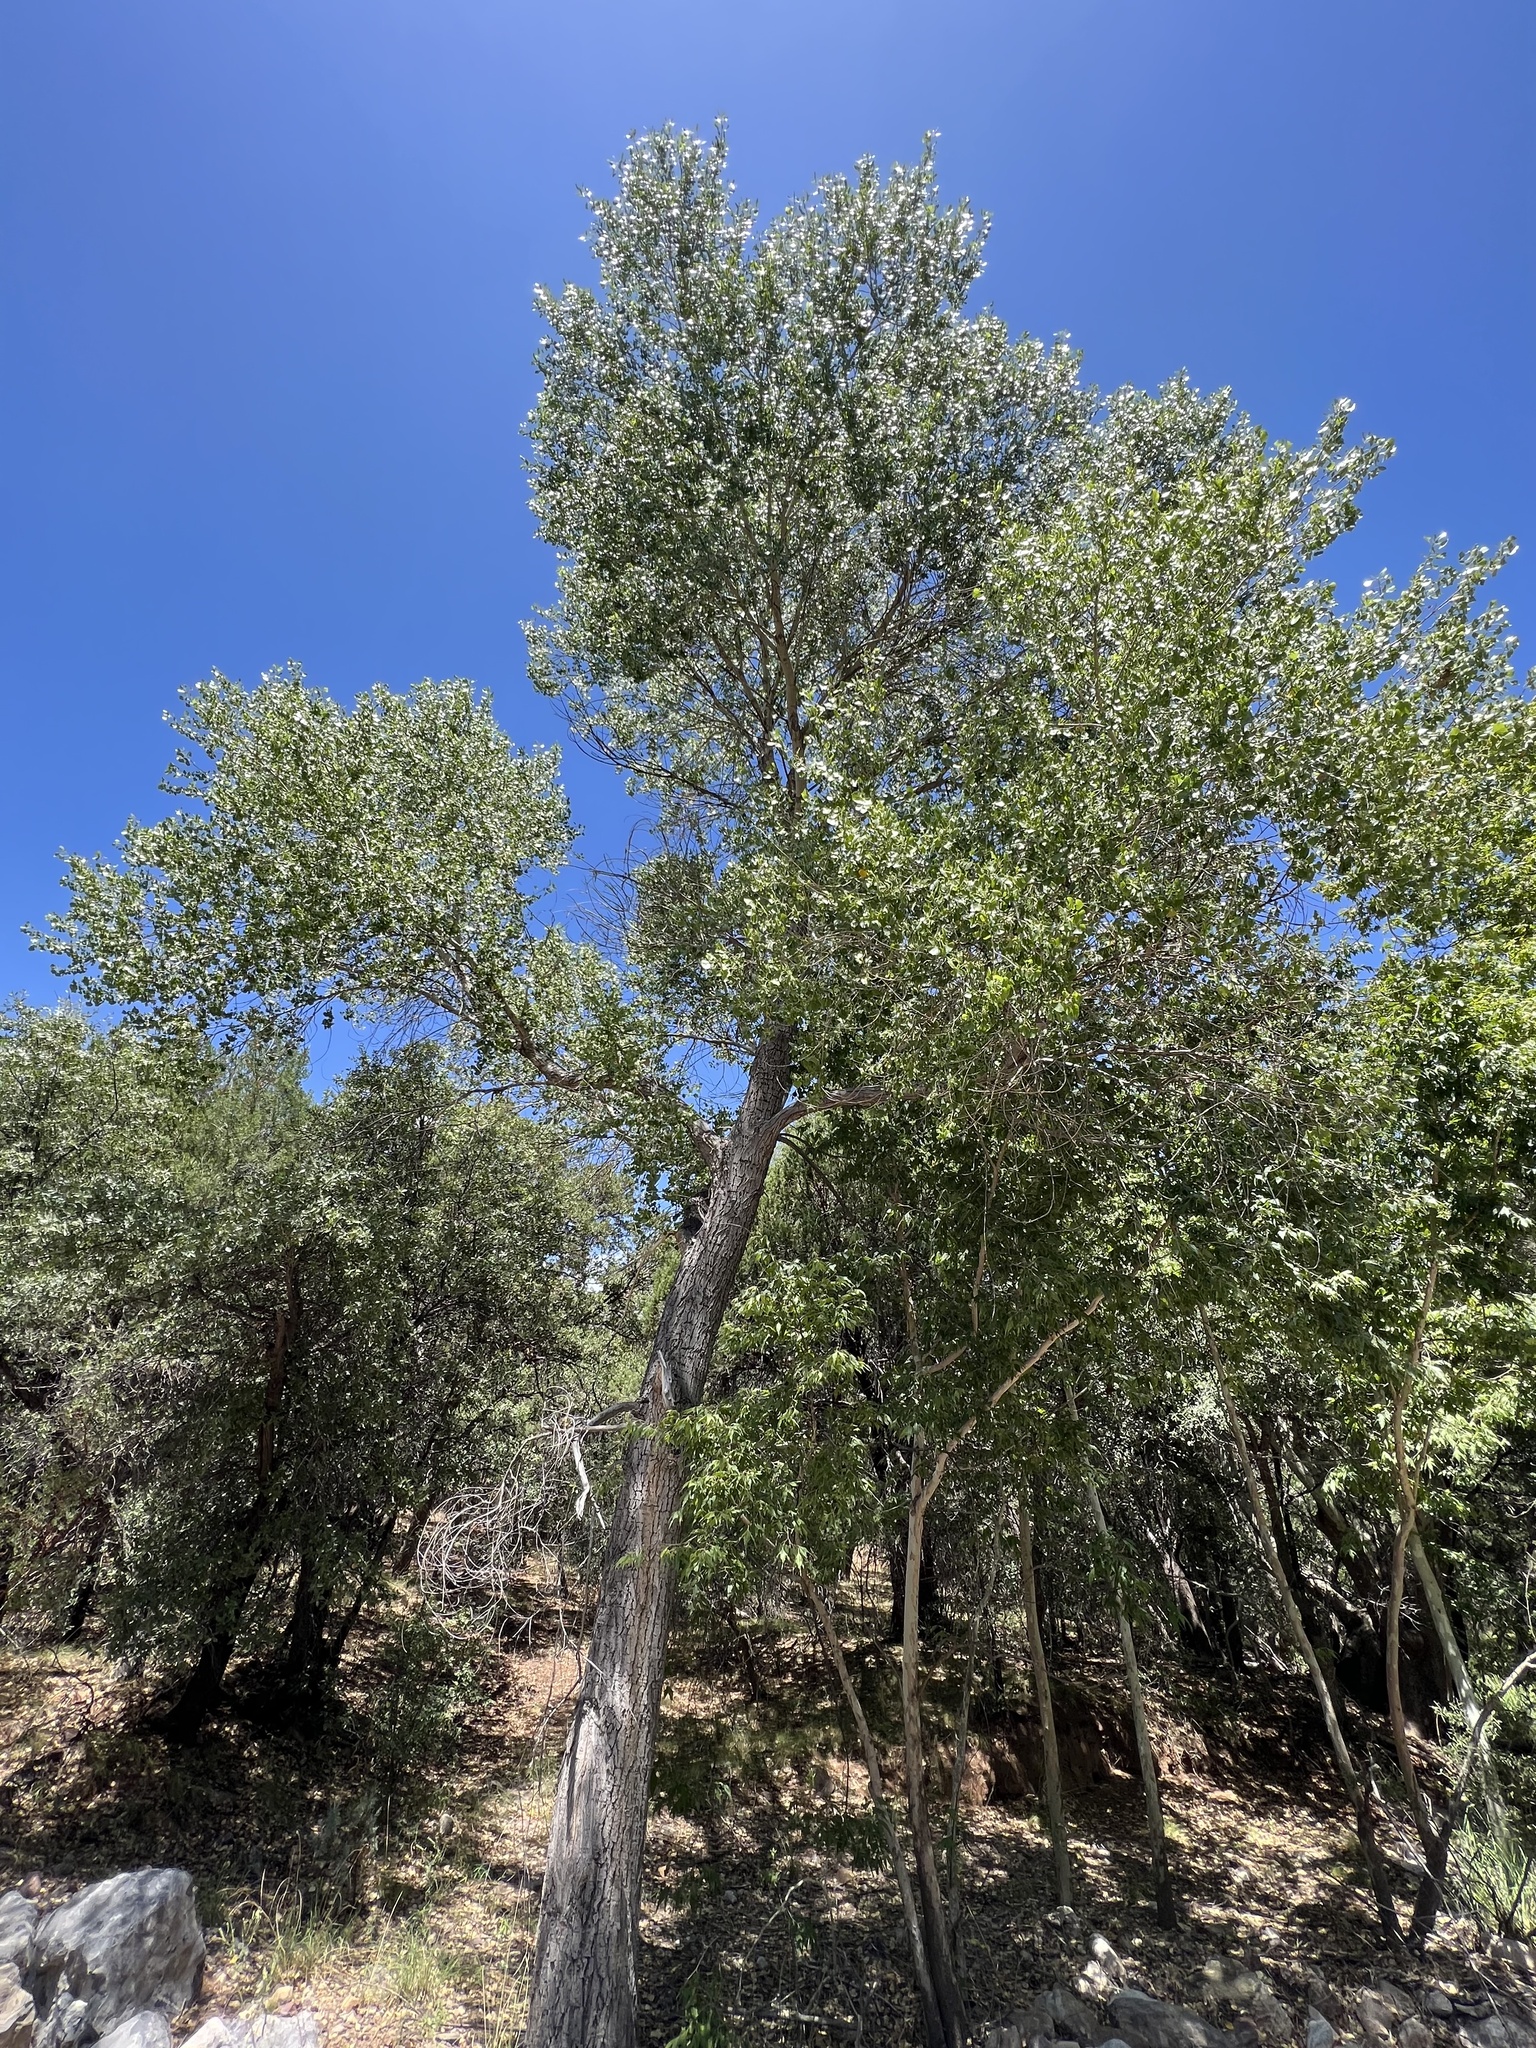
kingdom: Plantae
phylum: Tracheophyta
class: Magnoliopsida
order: Malpighiales
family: Salicaceae
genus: Populus
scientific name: Populus fremontii
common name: Fremont's cottonwood
